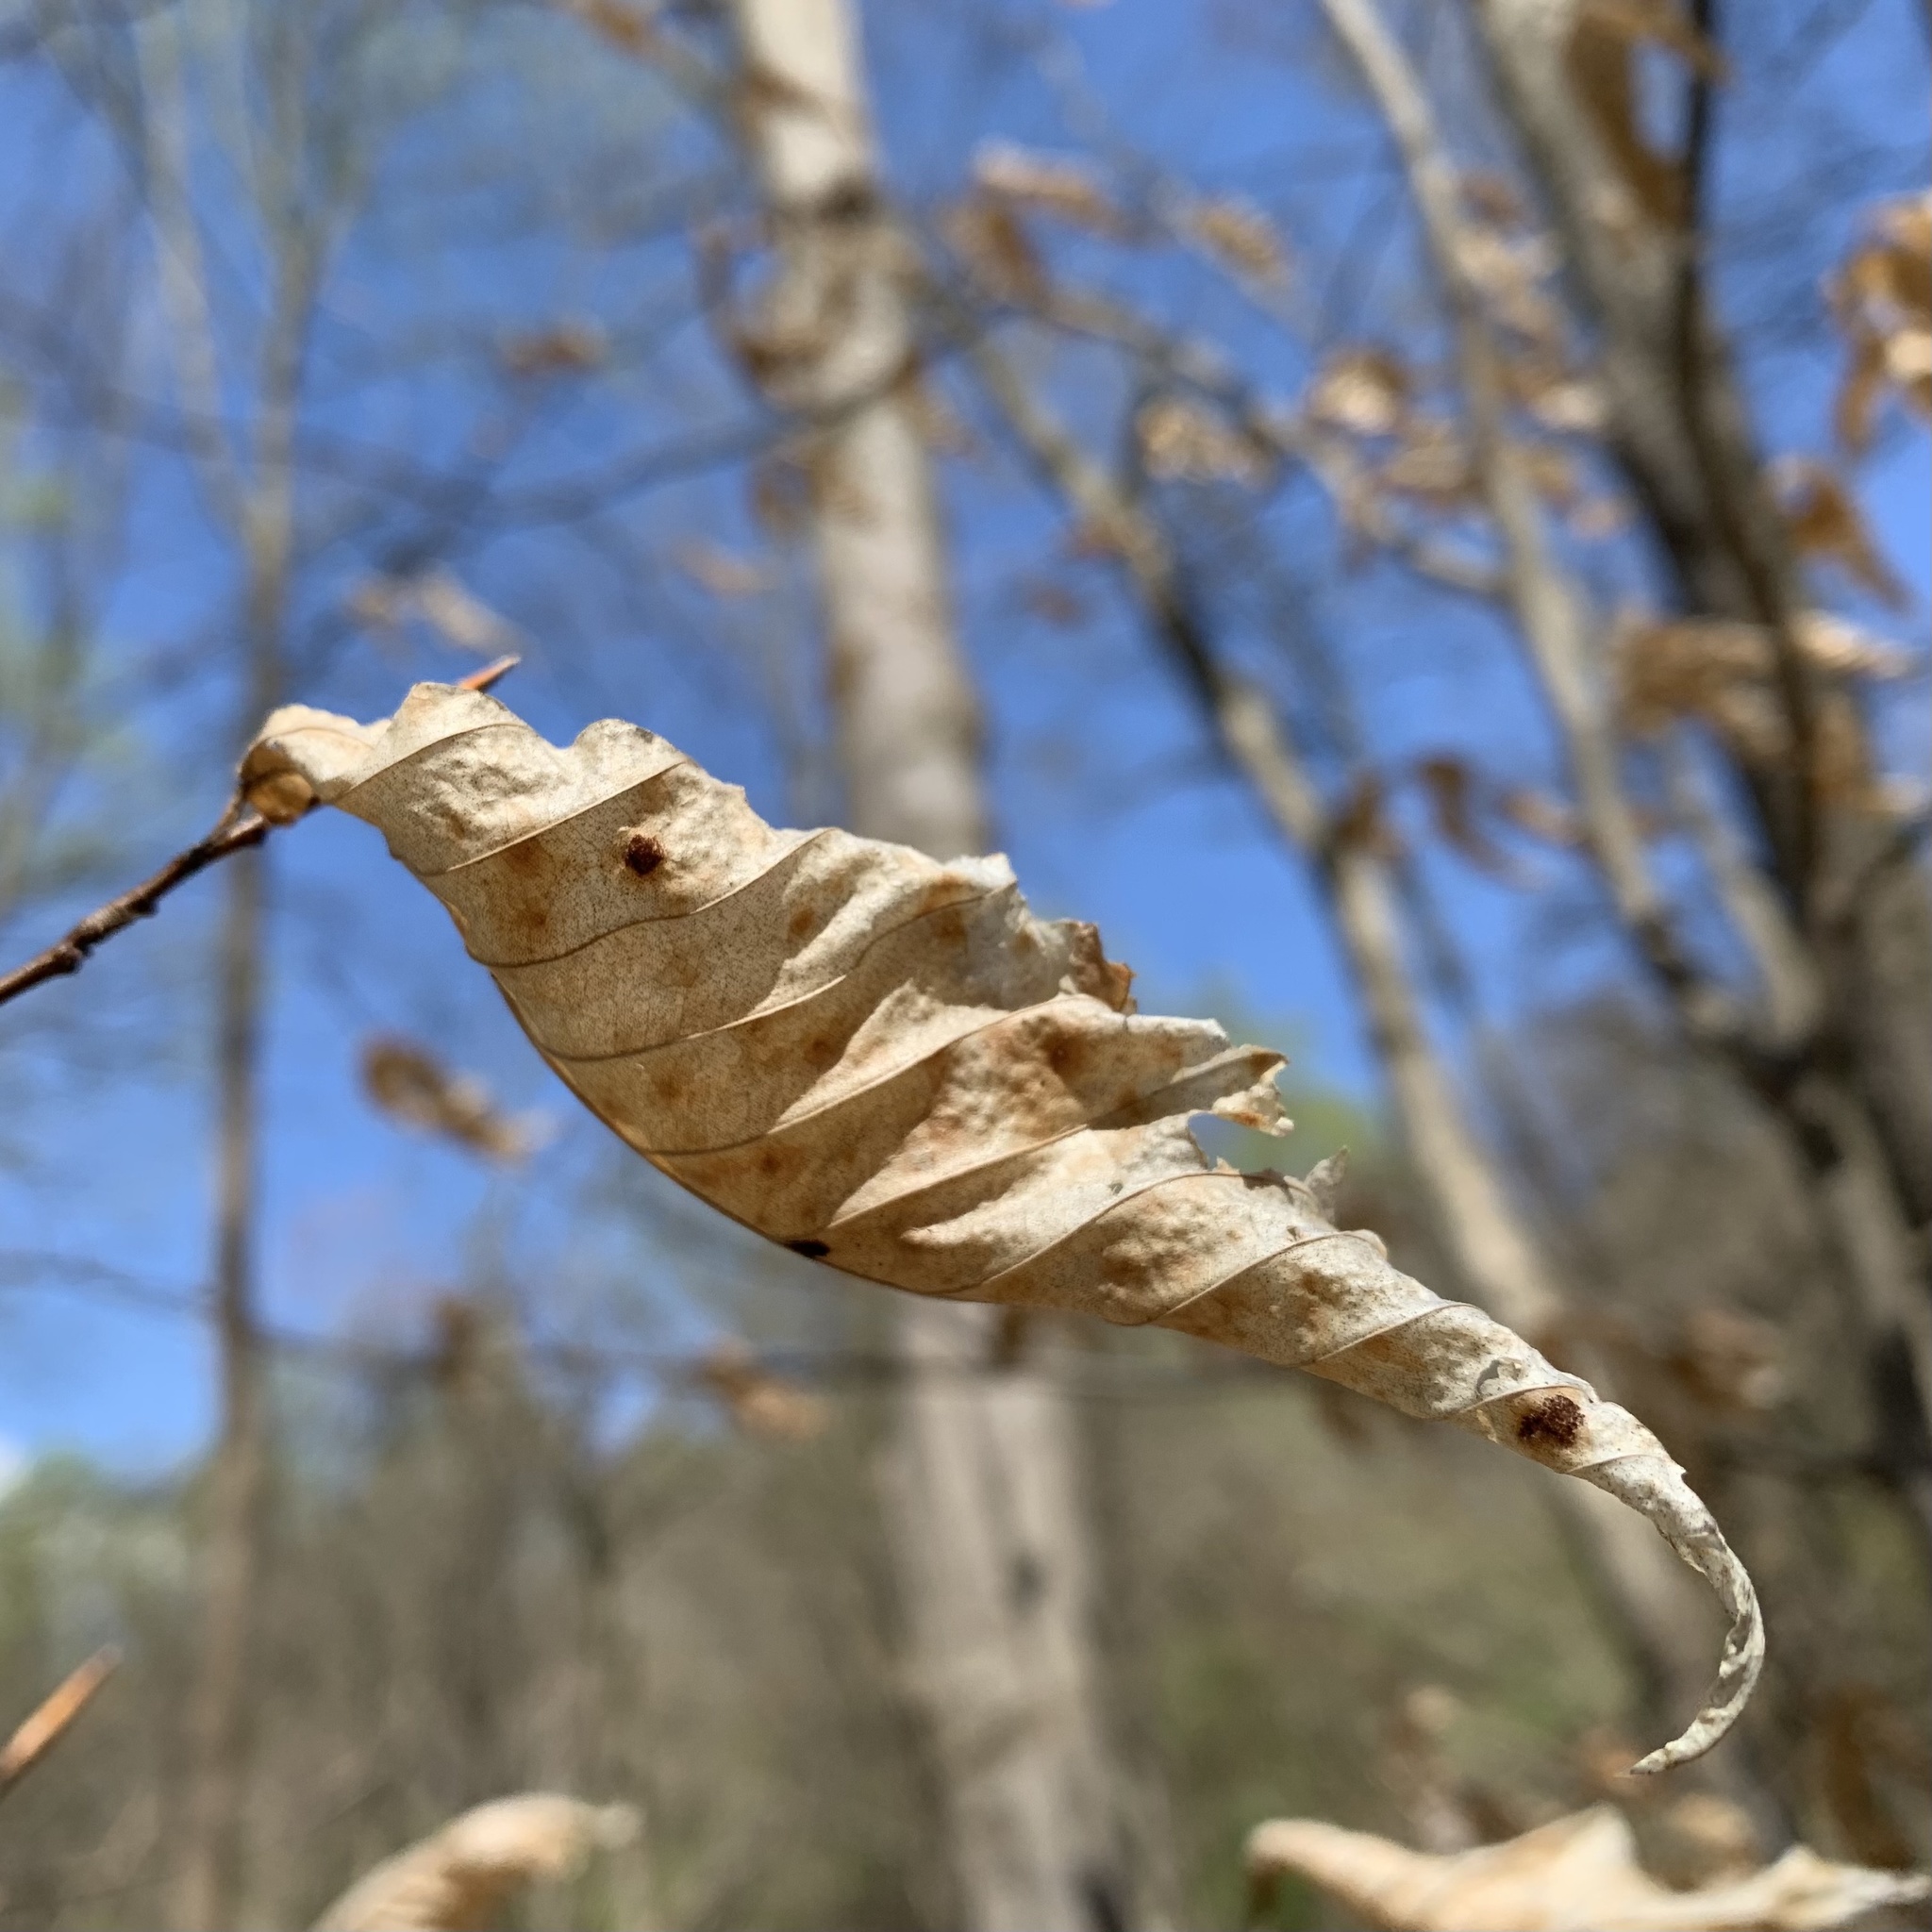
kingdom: Animalia
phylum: Arthropoda
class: Arachnida
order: Trombidiformes
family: Eriophyidae
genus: Acalitus
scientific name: Acalitus
